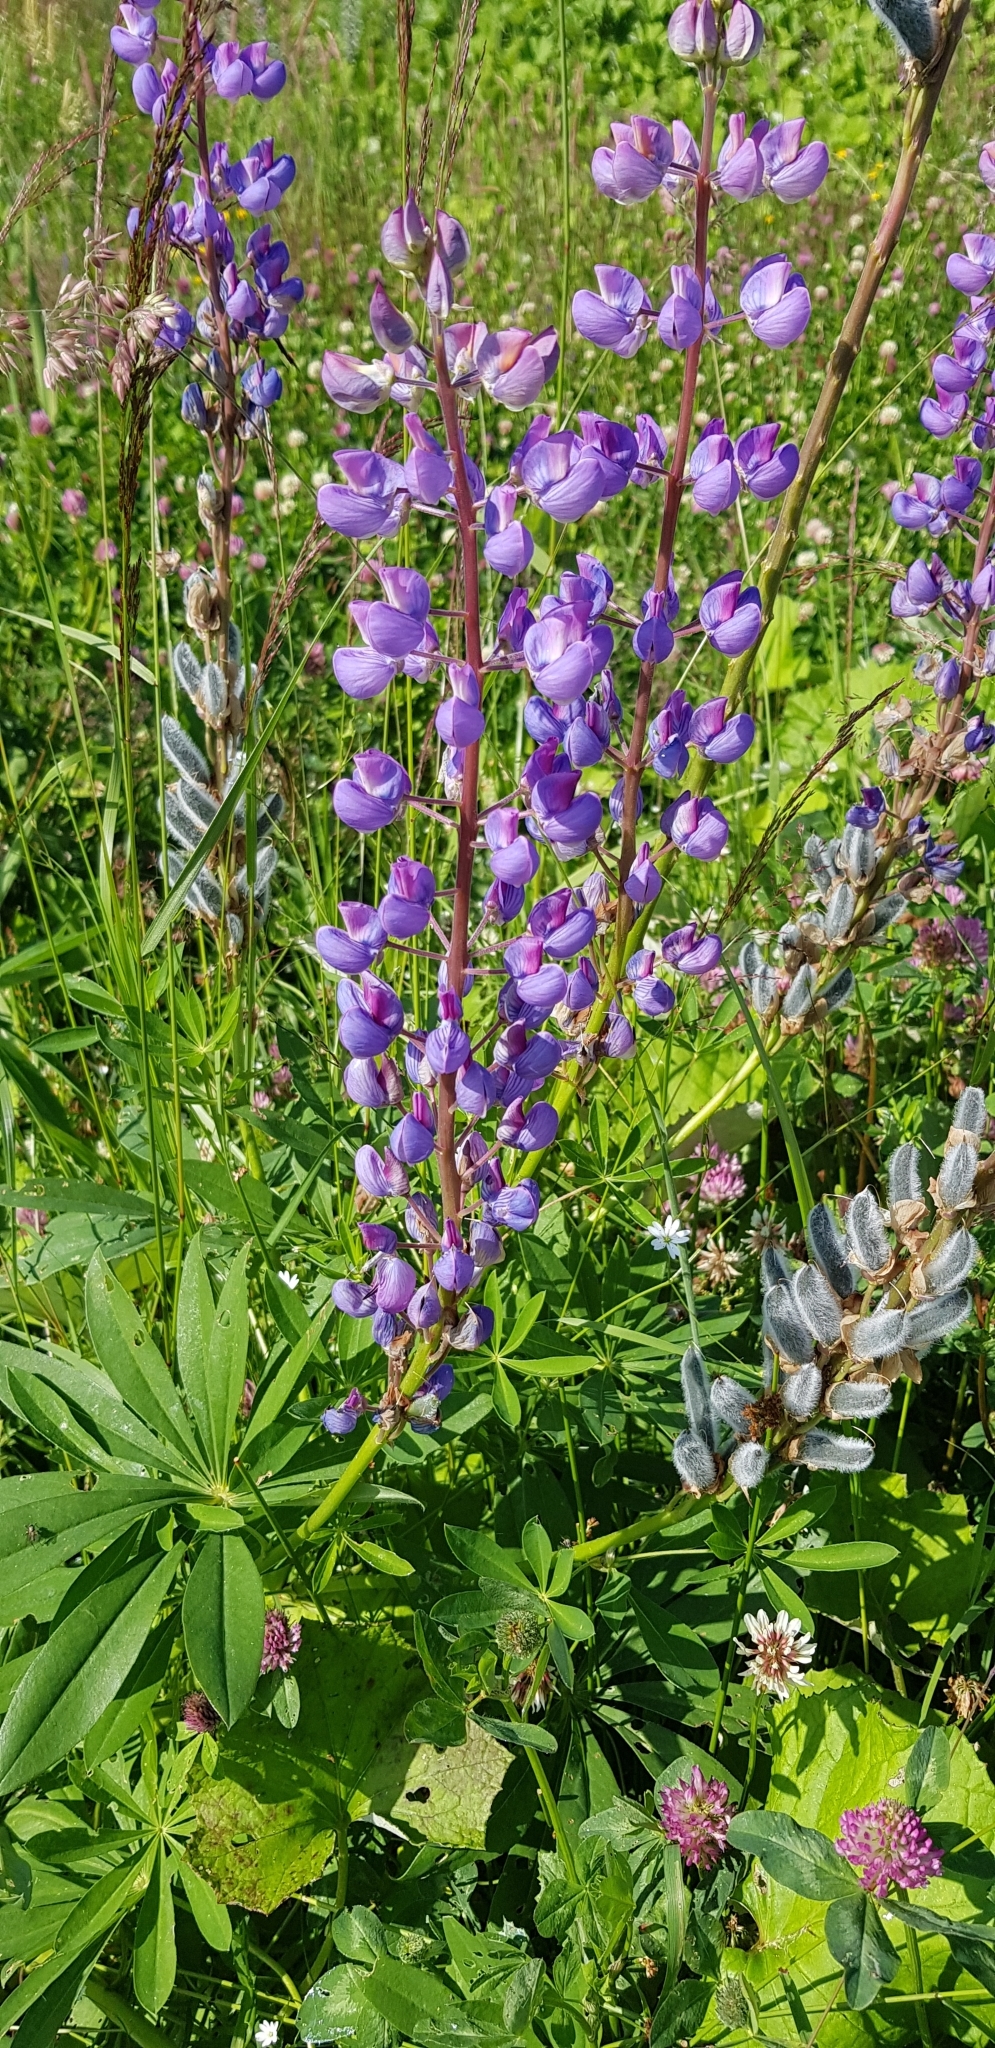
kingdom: Plantae
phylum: Tracheophyta
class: Magnoliopsida
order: Fabales
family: Fabaceae
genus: Lupinus
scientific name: Lupinus polyphyllus
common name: Garden lupin
